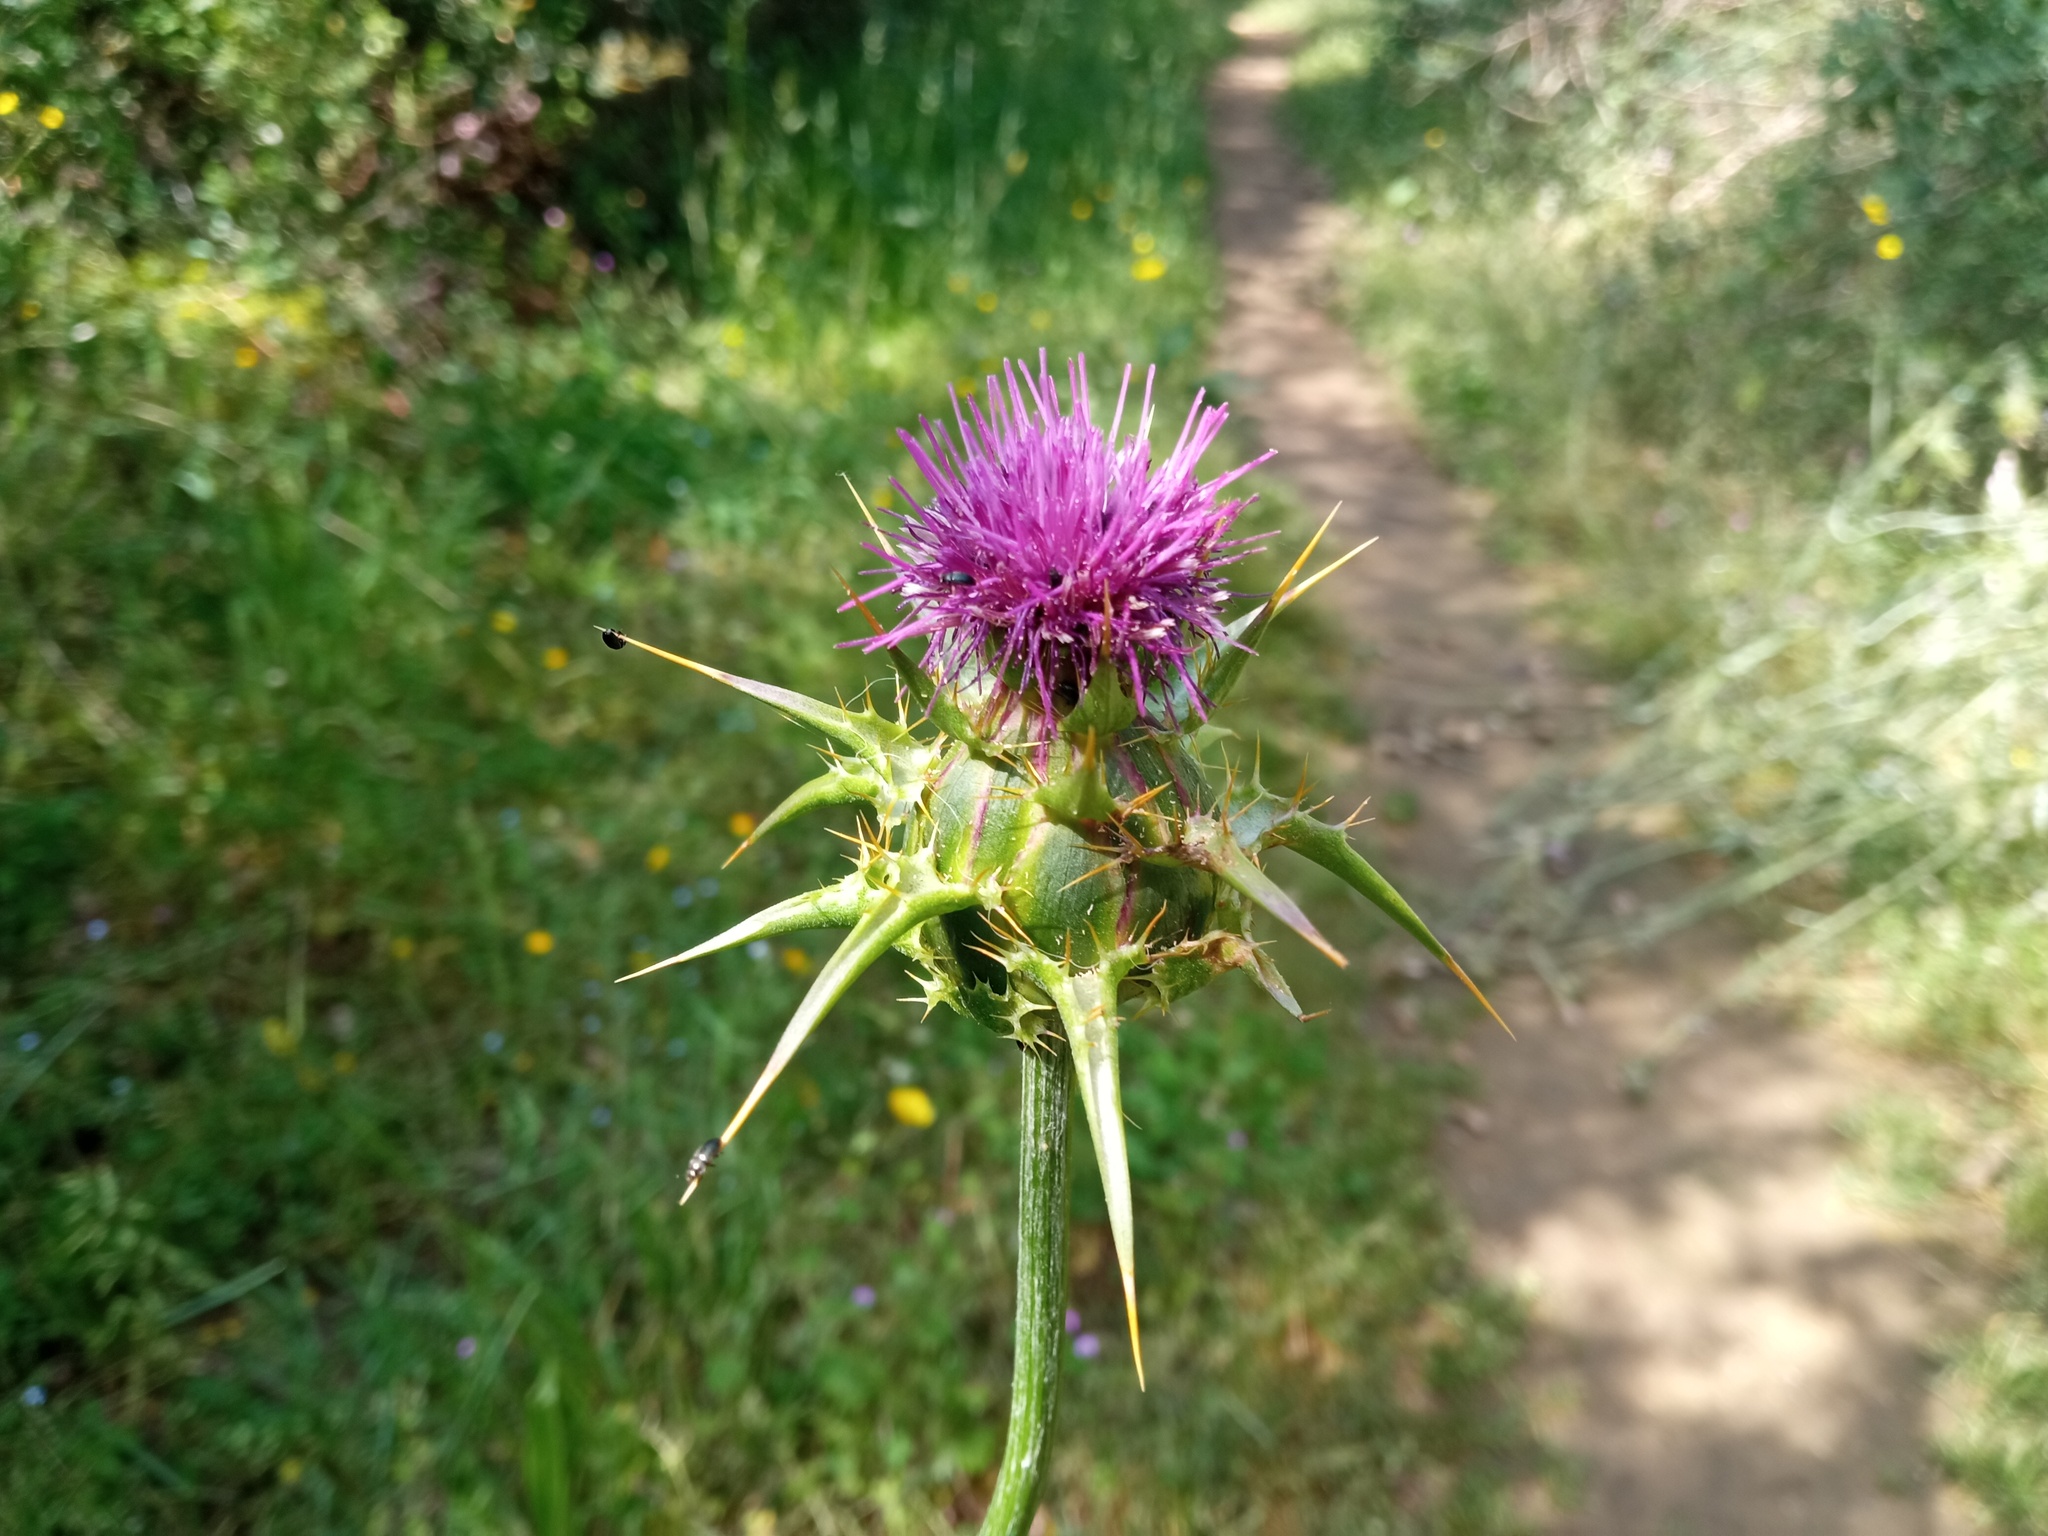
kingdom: Plantae
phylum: Tracheophyta
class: Magnoliopsida
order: Asterales
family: Asteraceae
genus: Silybum
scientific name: Silybum marianum
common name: Milk thistle
